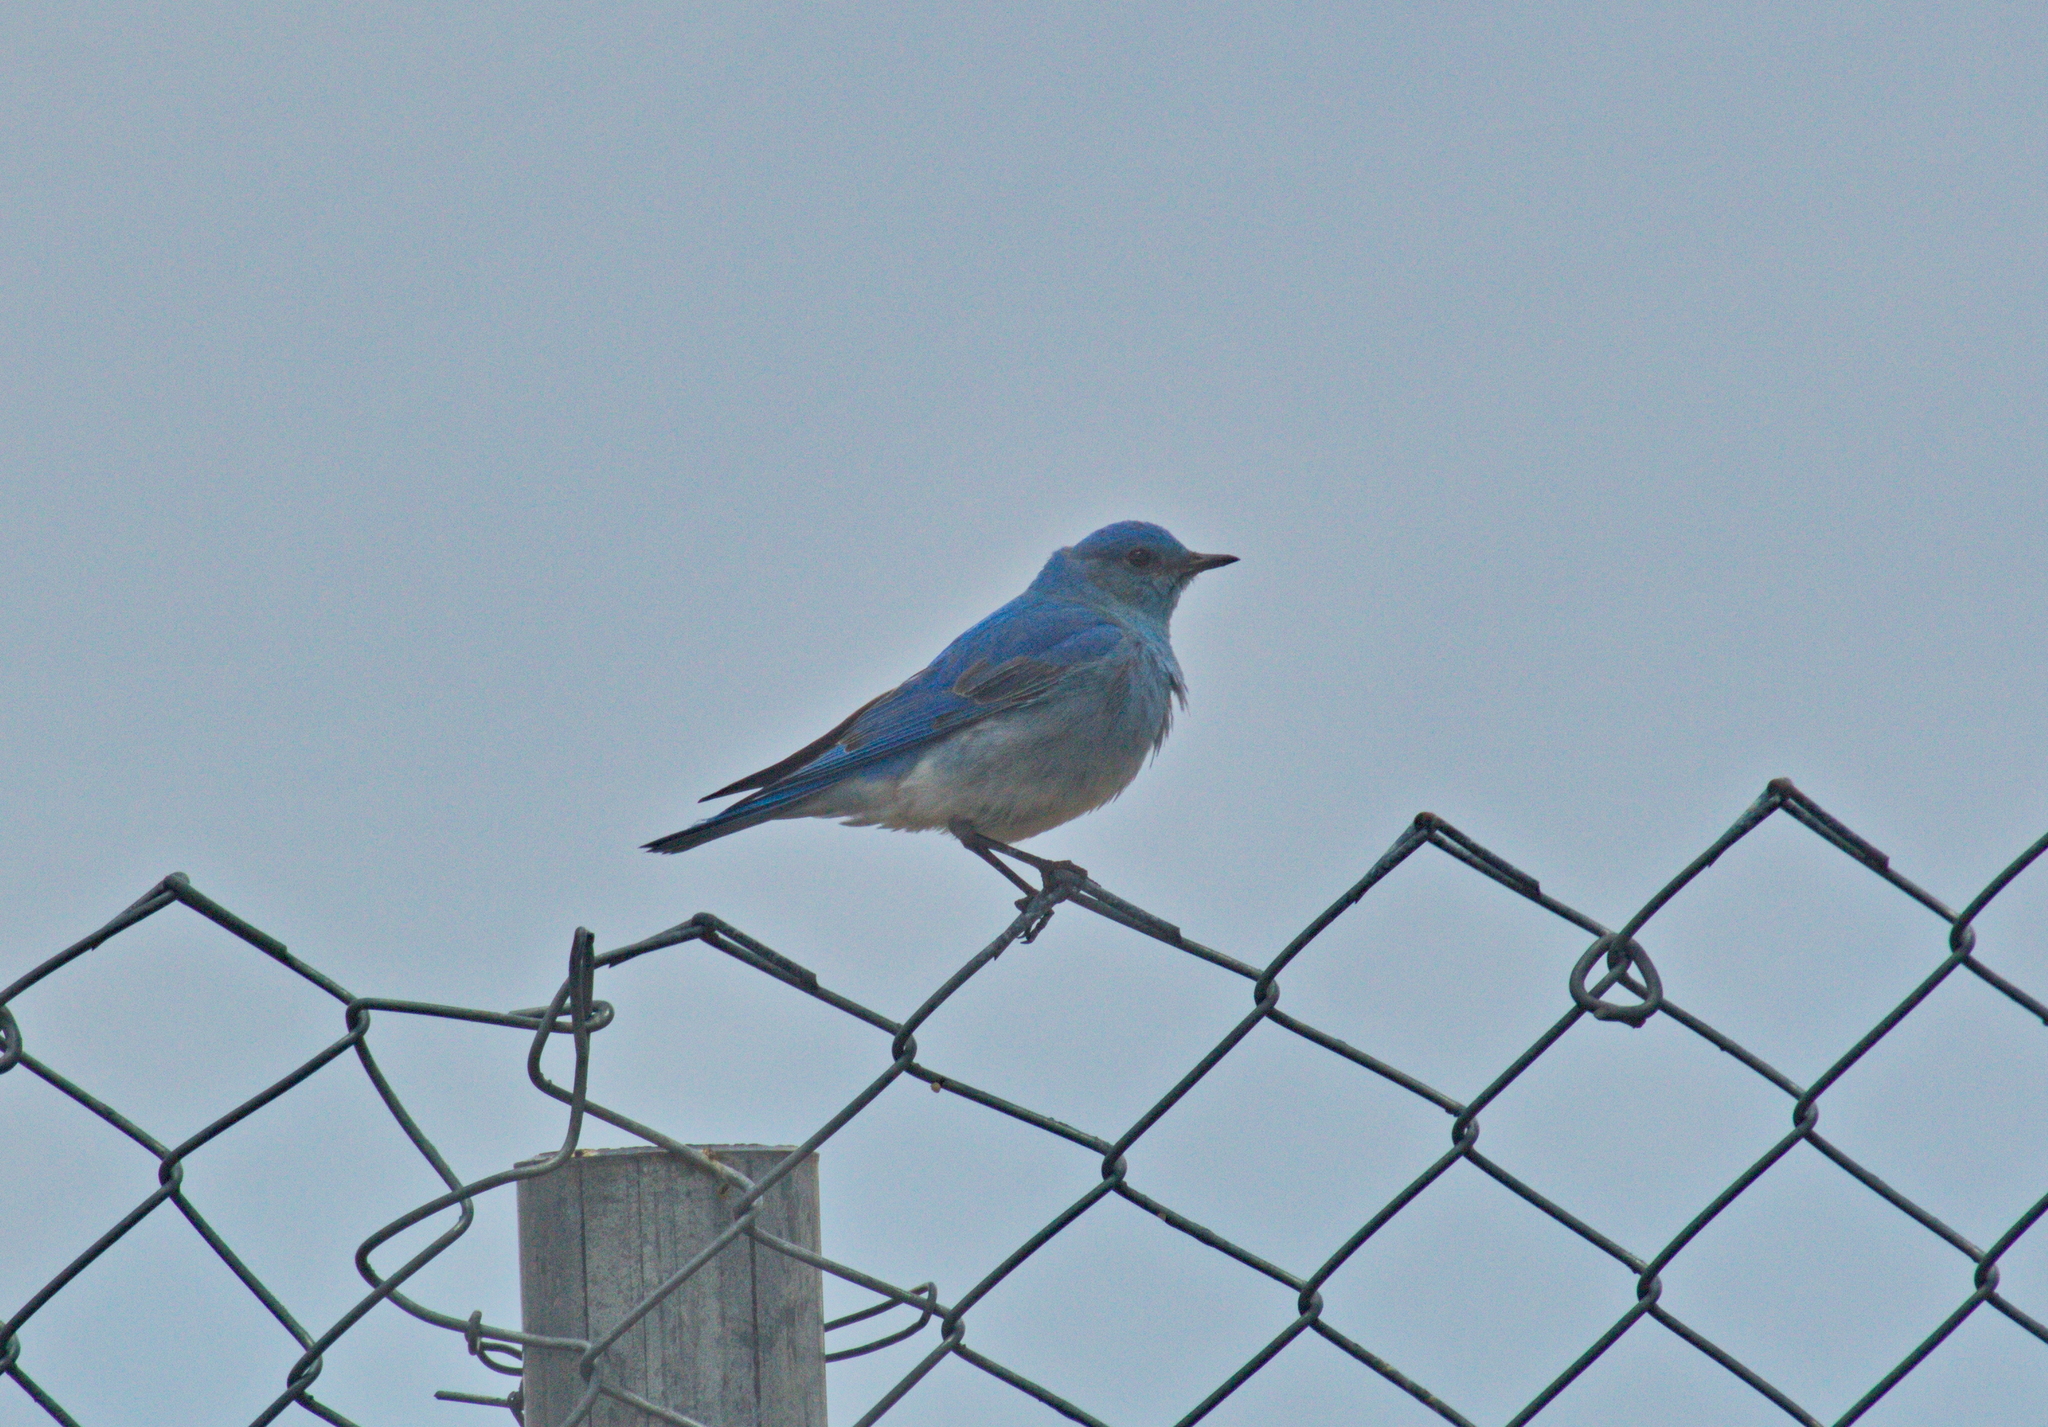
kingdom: Animalia
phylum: Chordata
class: Aves
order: Passeriformes
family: Turdidae
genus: Sialia
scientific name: Sialia currucoides
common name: Mountain bluebird
